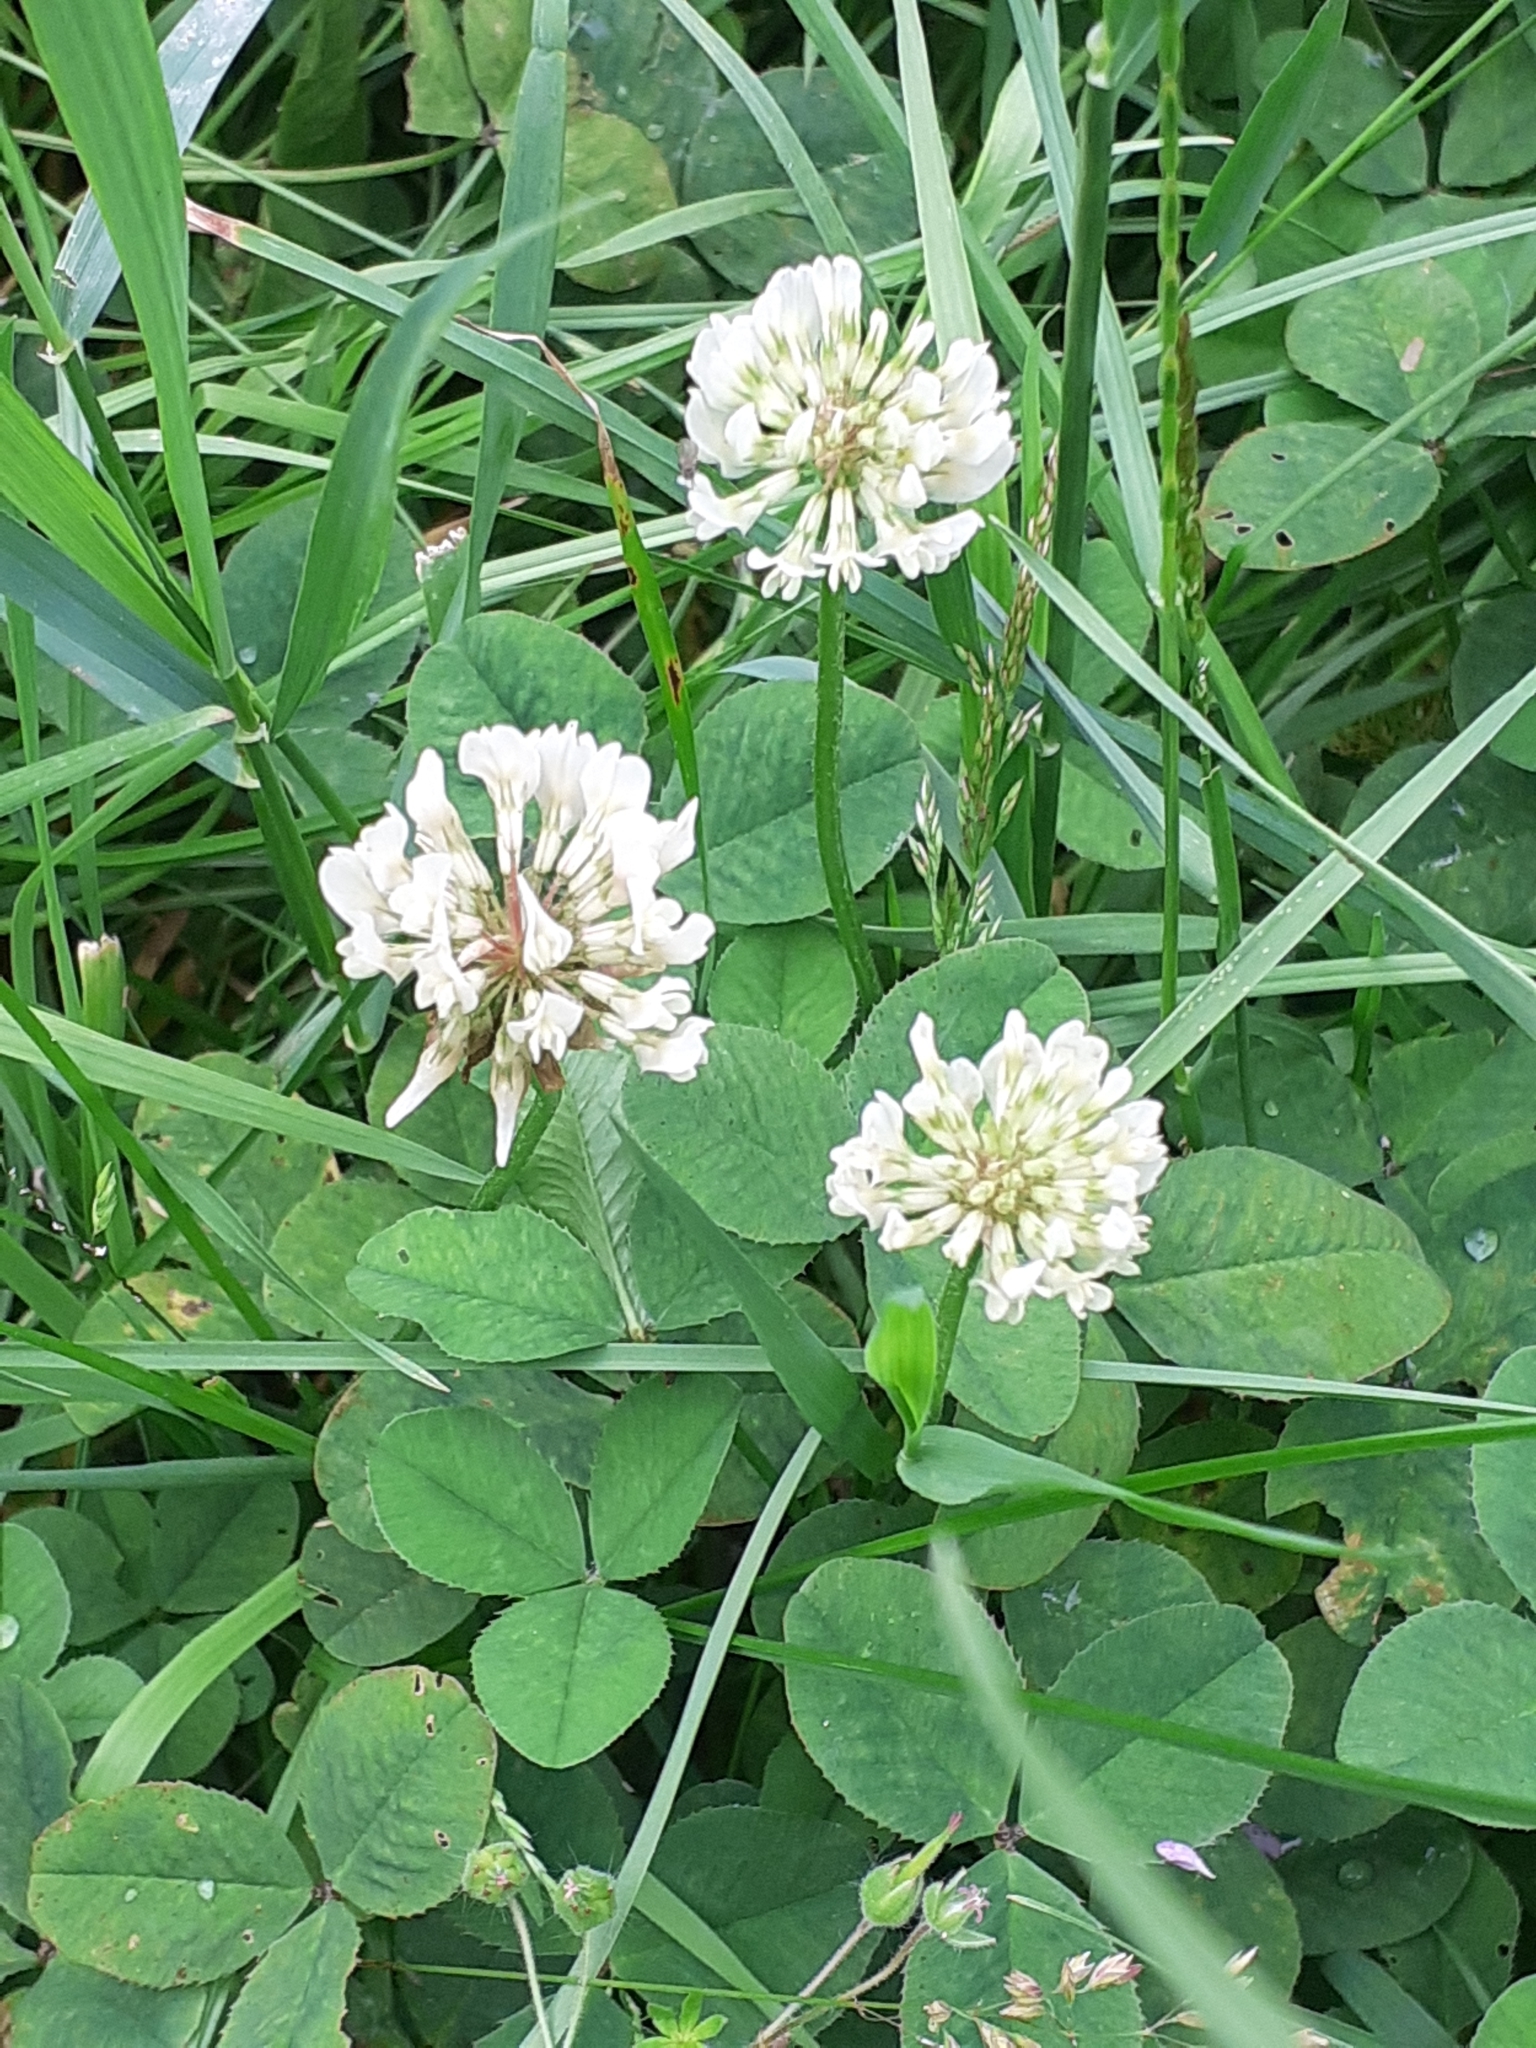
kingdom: Plantae
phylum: Tracheophyta
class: Magnoliopsida
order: Fabales
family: Fabaceae
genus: Trifolium
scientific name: Trifolium repens
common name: White clover
